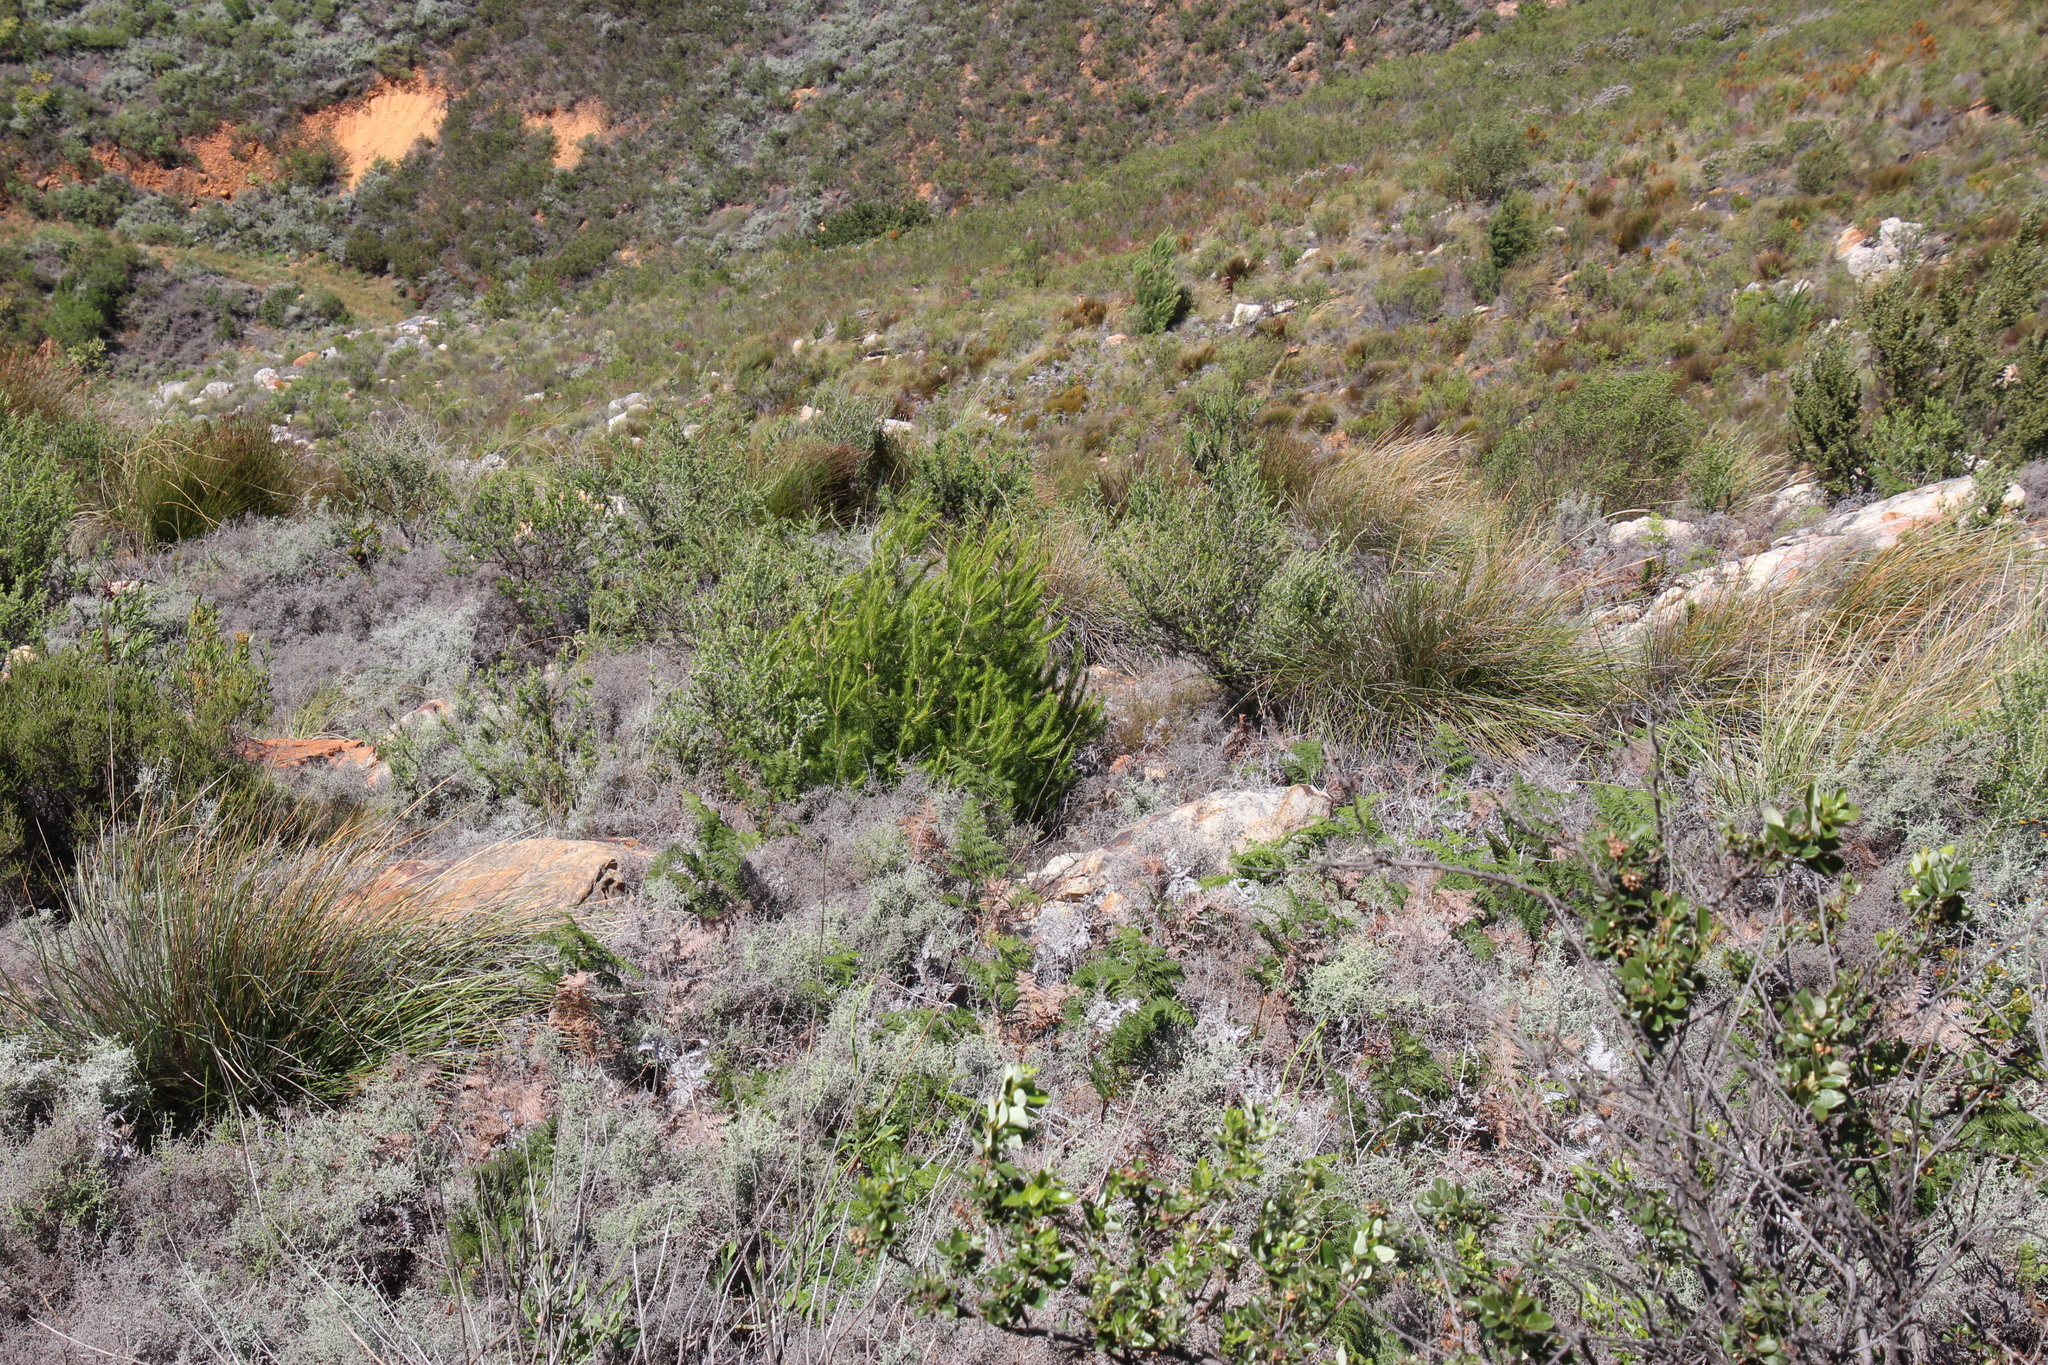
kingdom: Plantae
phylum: Tracheophyta
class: Pinopsida
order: Pinales
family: Pinaceae
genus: Pinus
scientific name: Pinus halepensis
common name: Aleppo pine
